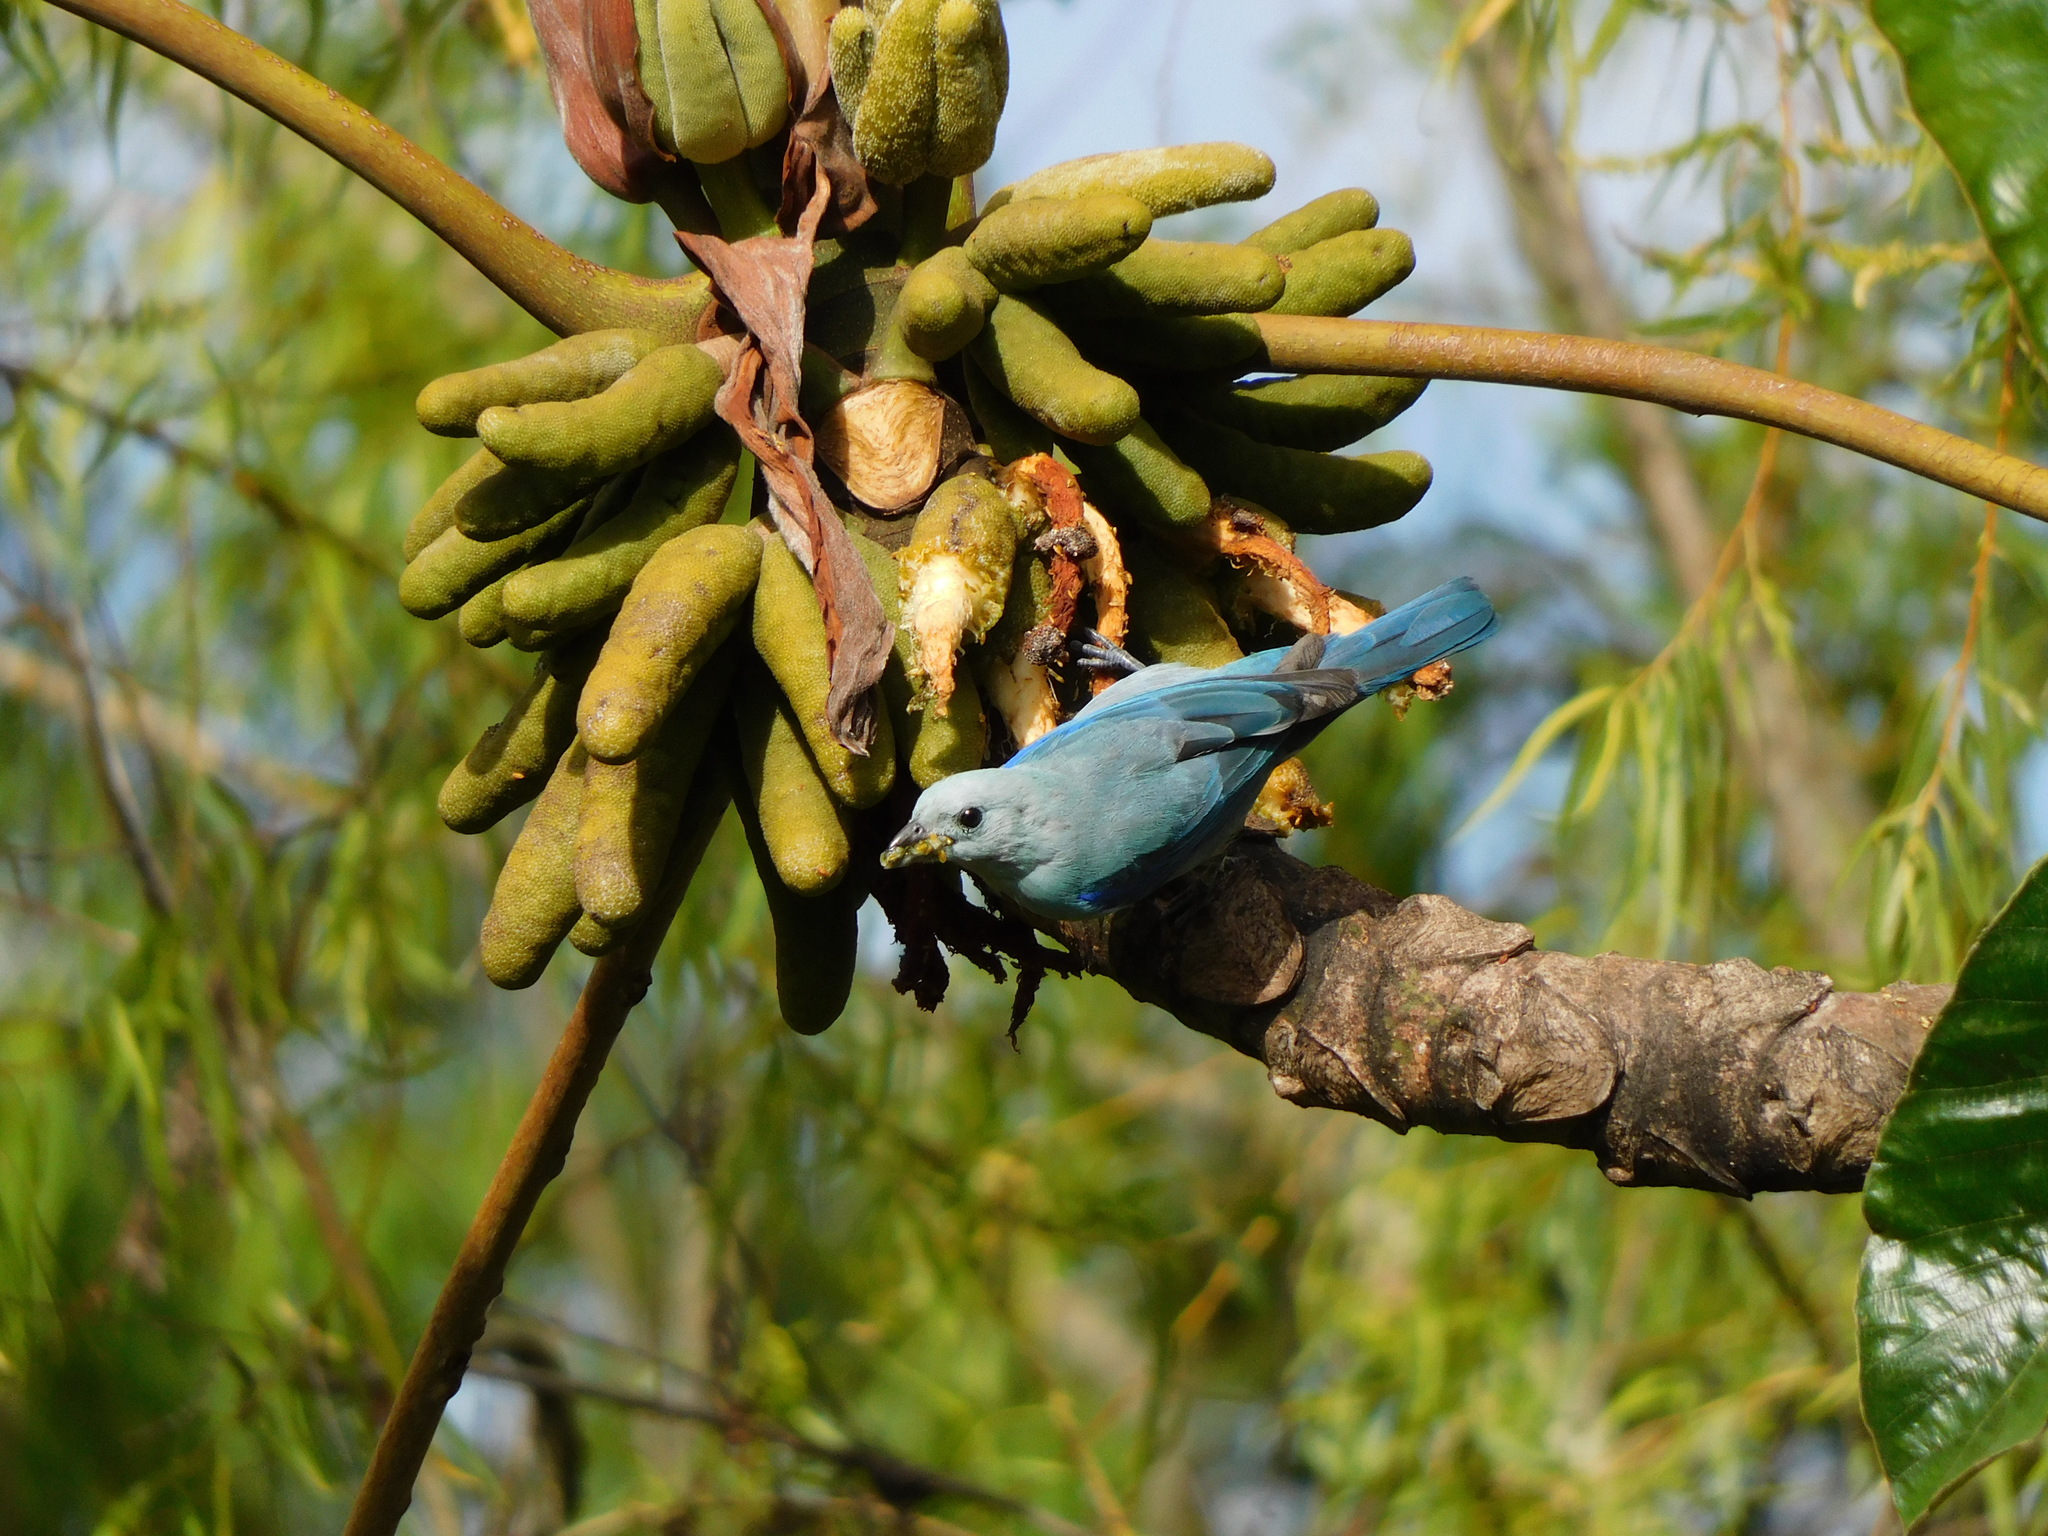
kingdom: Animalia
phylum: Chordata
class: Aves
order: Passeriformes
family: Thraupidae
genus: Thraupis
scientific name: Thraupis episcopus
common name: Blue-grey tanager
